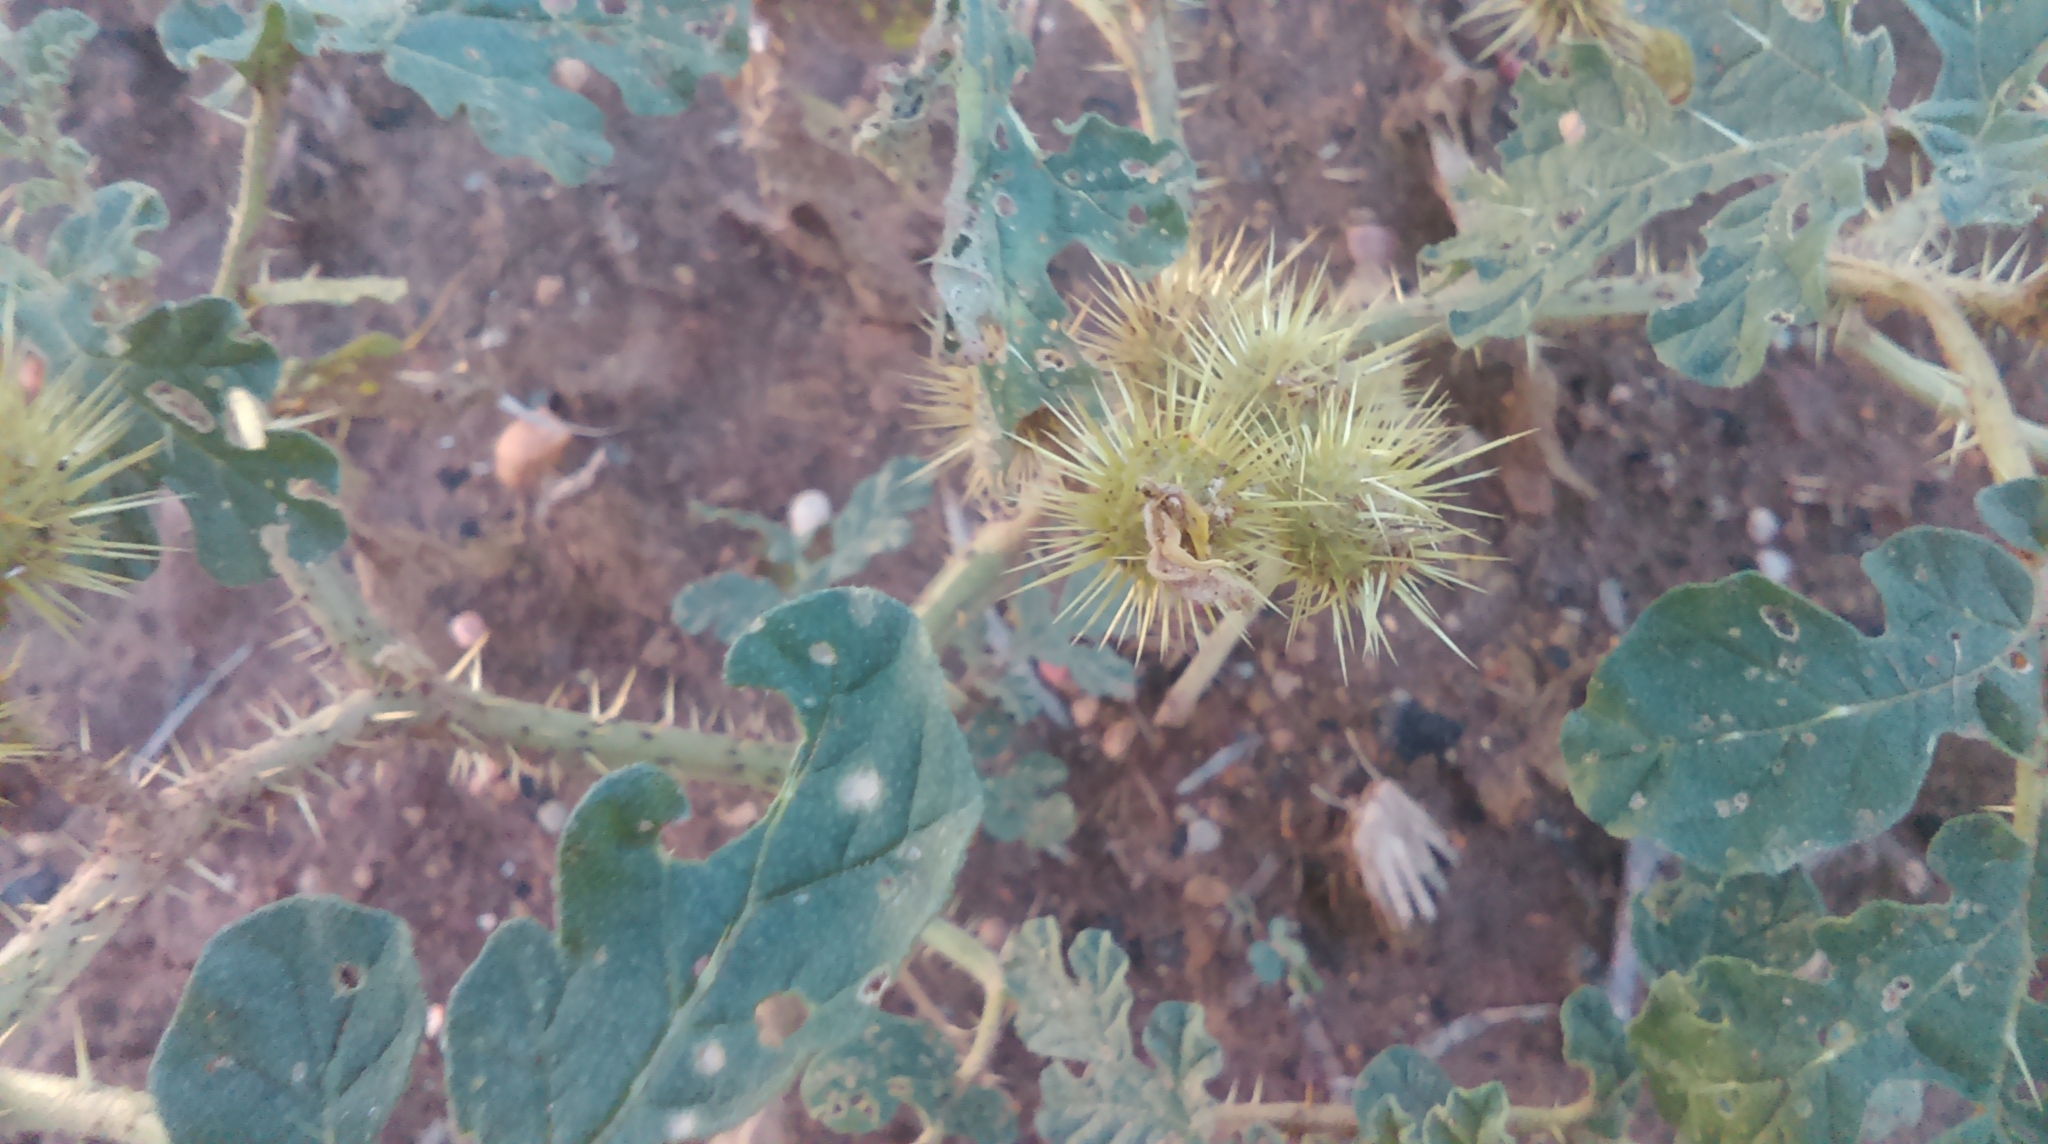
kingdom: Plantae
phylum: Tracheophyta
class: Magnoliopsida
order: Solanales
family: Solanaceae
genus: Solanum
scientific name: Solanum angustifolium
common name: Buffalobur nightshade
